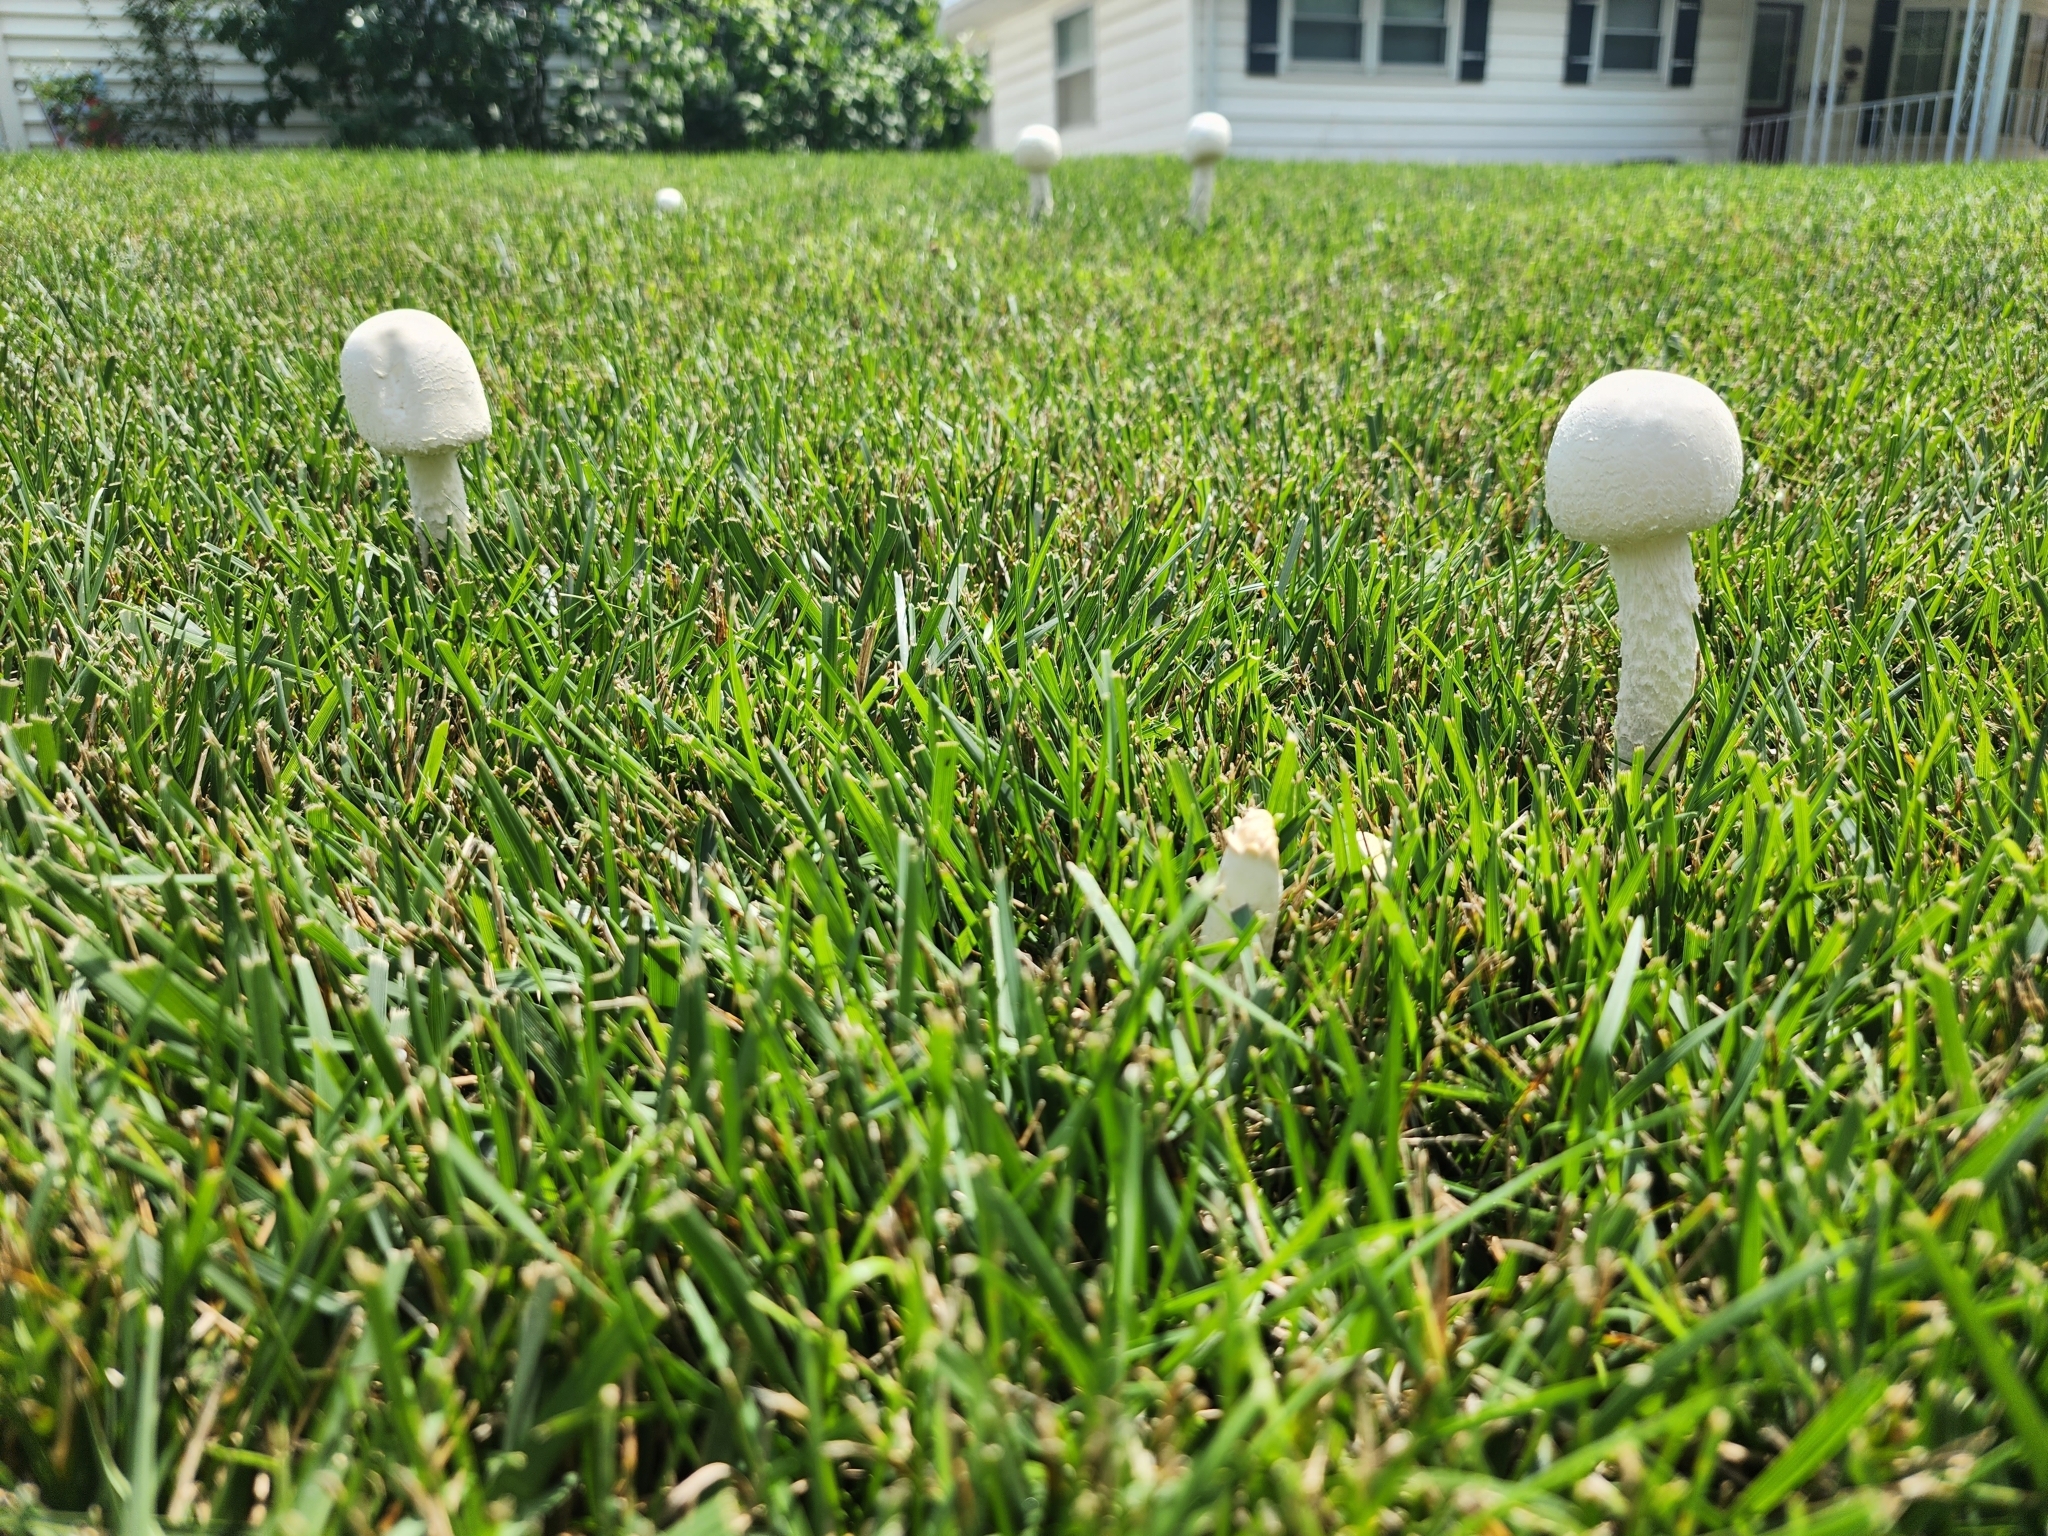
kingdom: Fungi
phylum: Basidiomycota
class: Agaricomycetes
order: Agaricales
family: Amanitaceae
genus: Amanita
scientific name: Amanita thiersii
